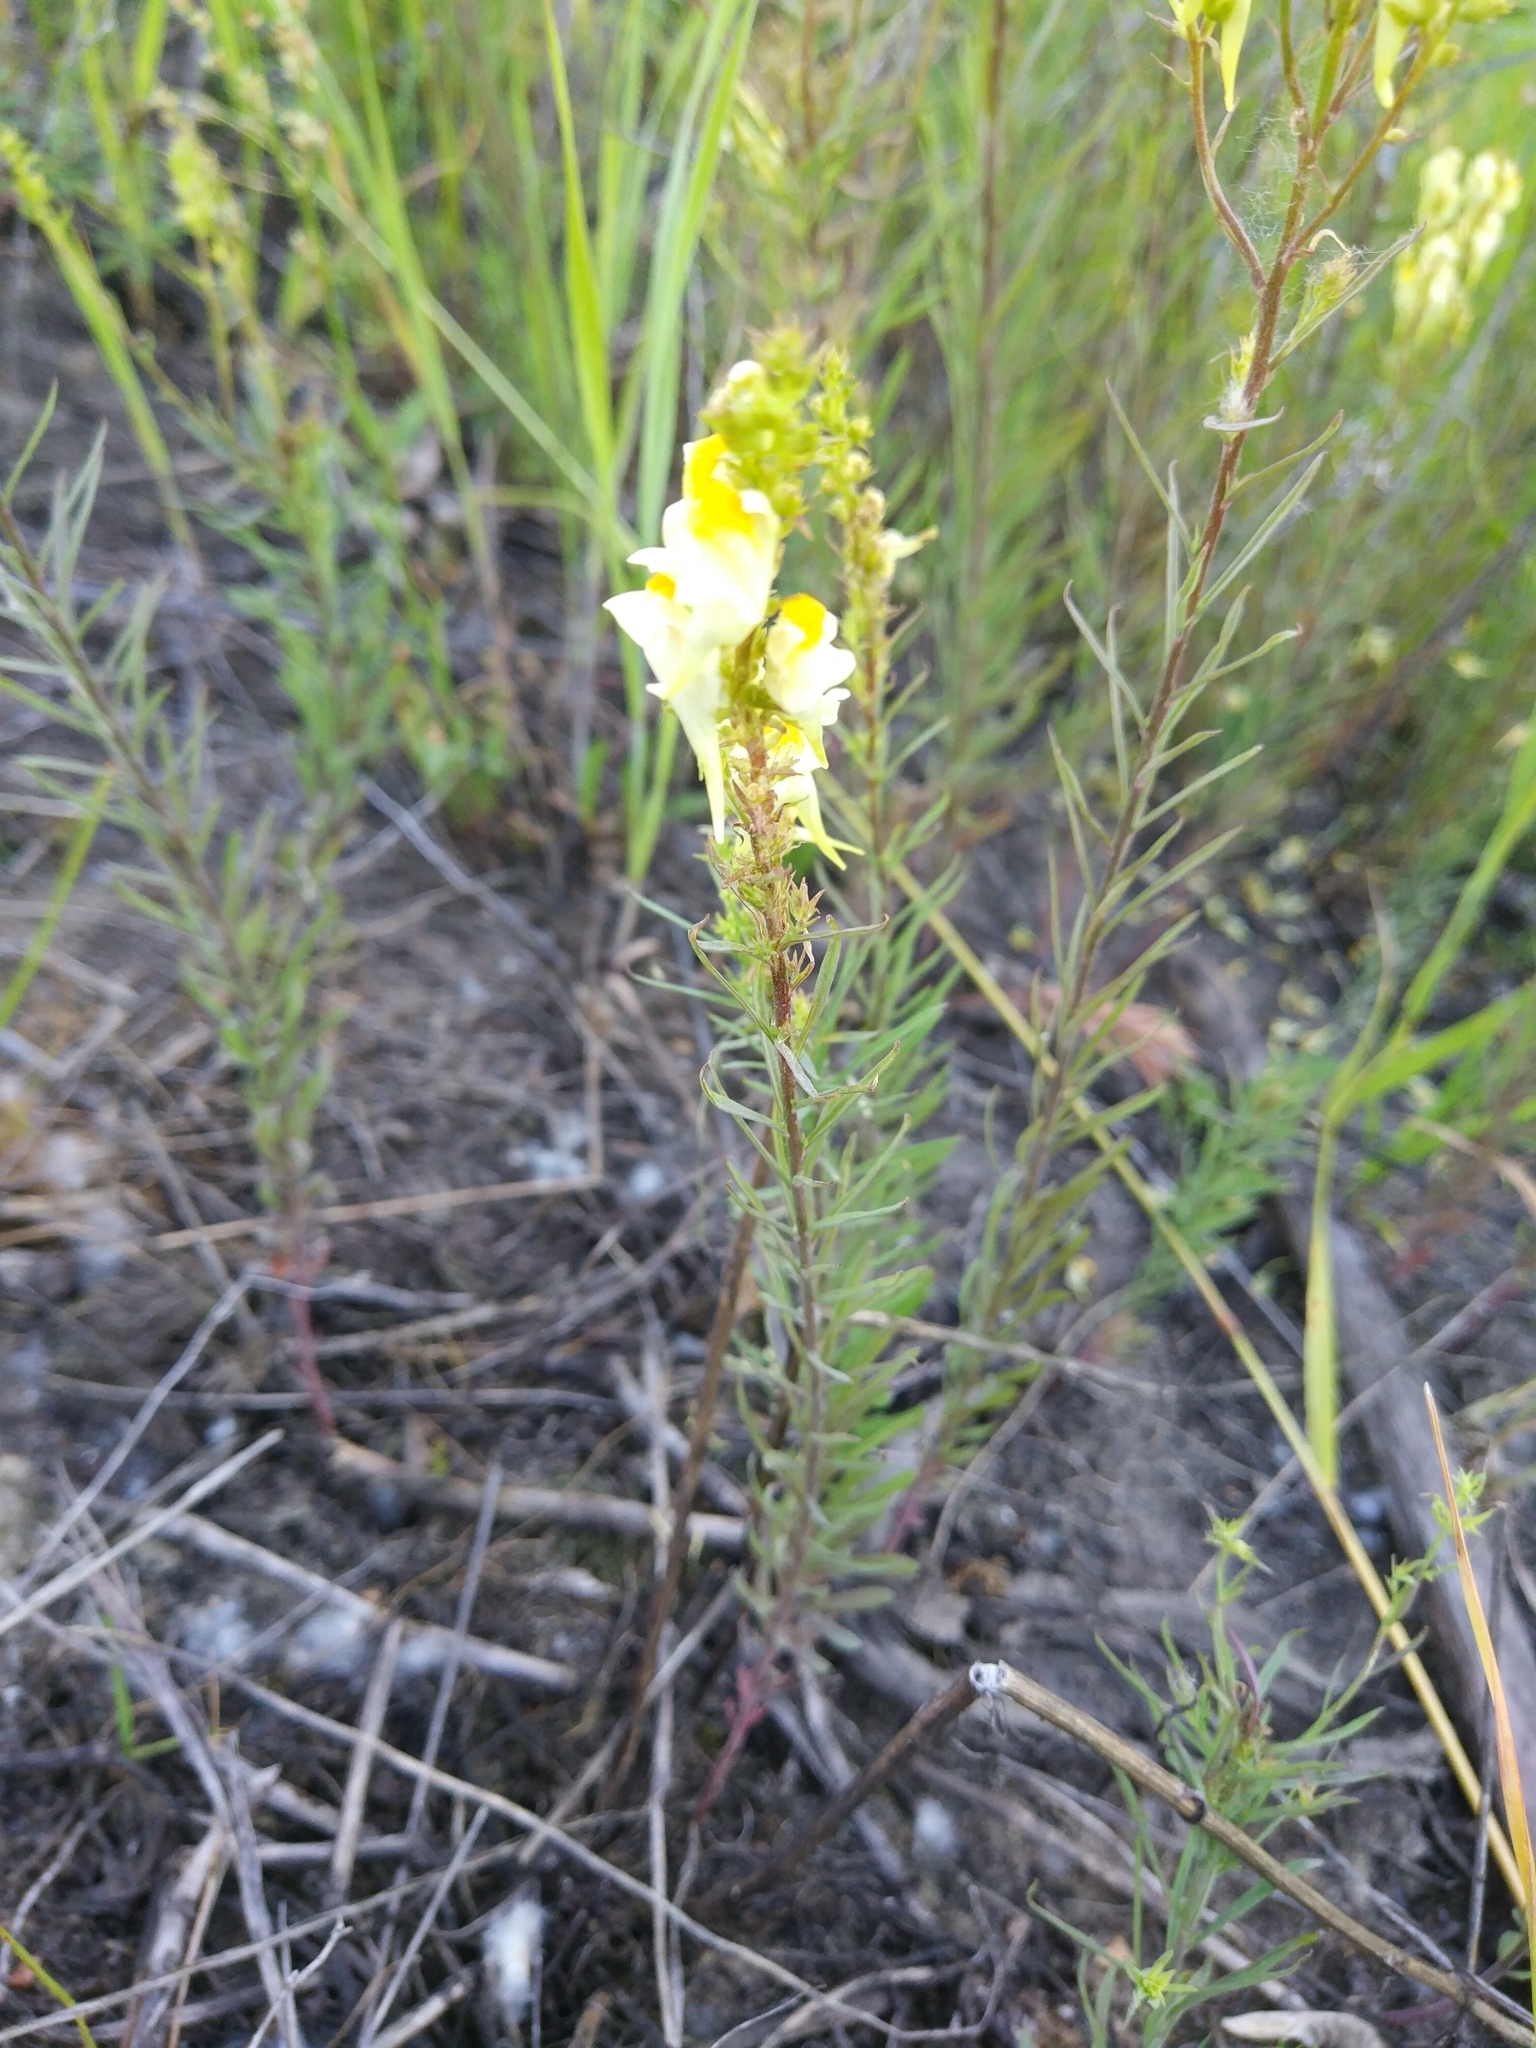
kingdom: Plantae
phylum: Tracheophyta
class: Magnoliopsida
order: Lamiales
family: Plantaginaceae
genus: Linaria
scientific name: Linaria vulgaris
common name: Butter and eggs
